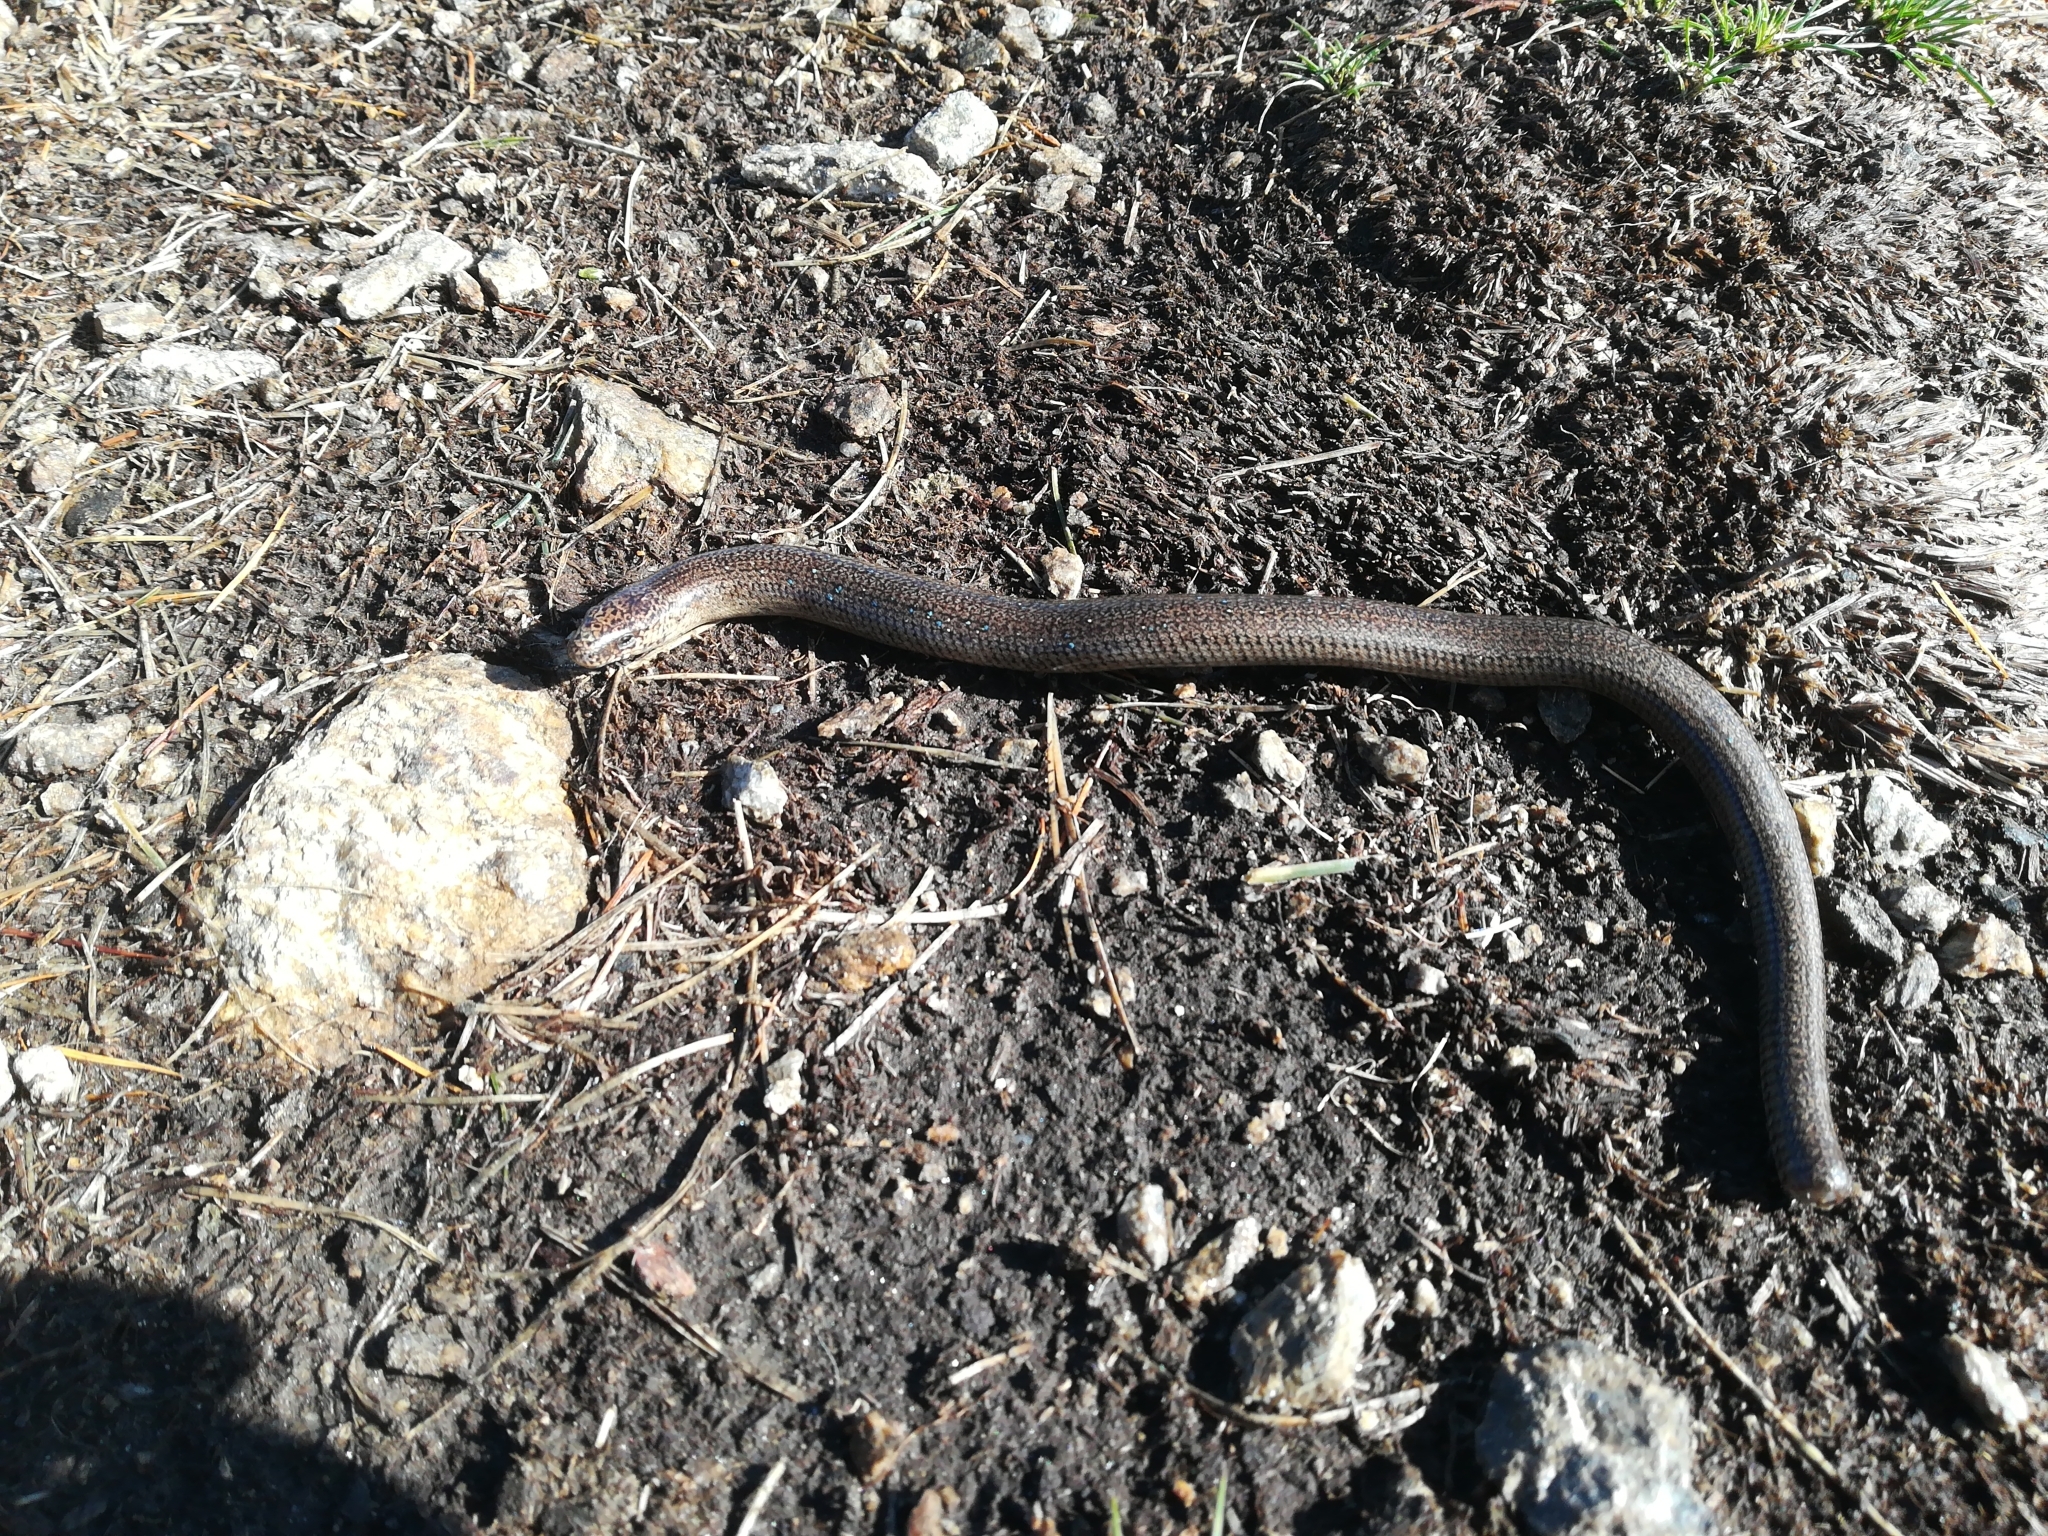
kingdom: Animalia
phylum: Chordata
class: Squamata
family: Anguidae
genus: Anguis
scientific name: Anguis veronensis
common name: Italian slow worm
